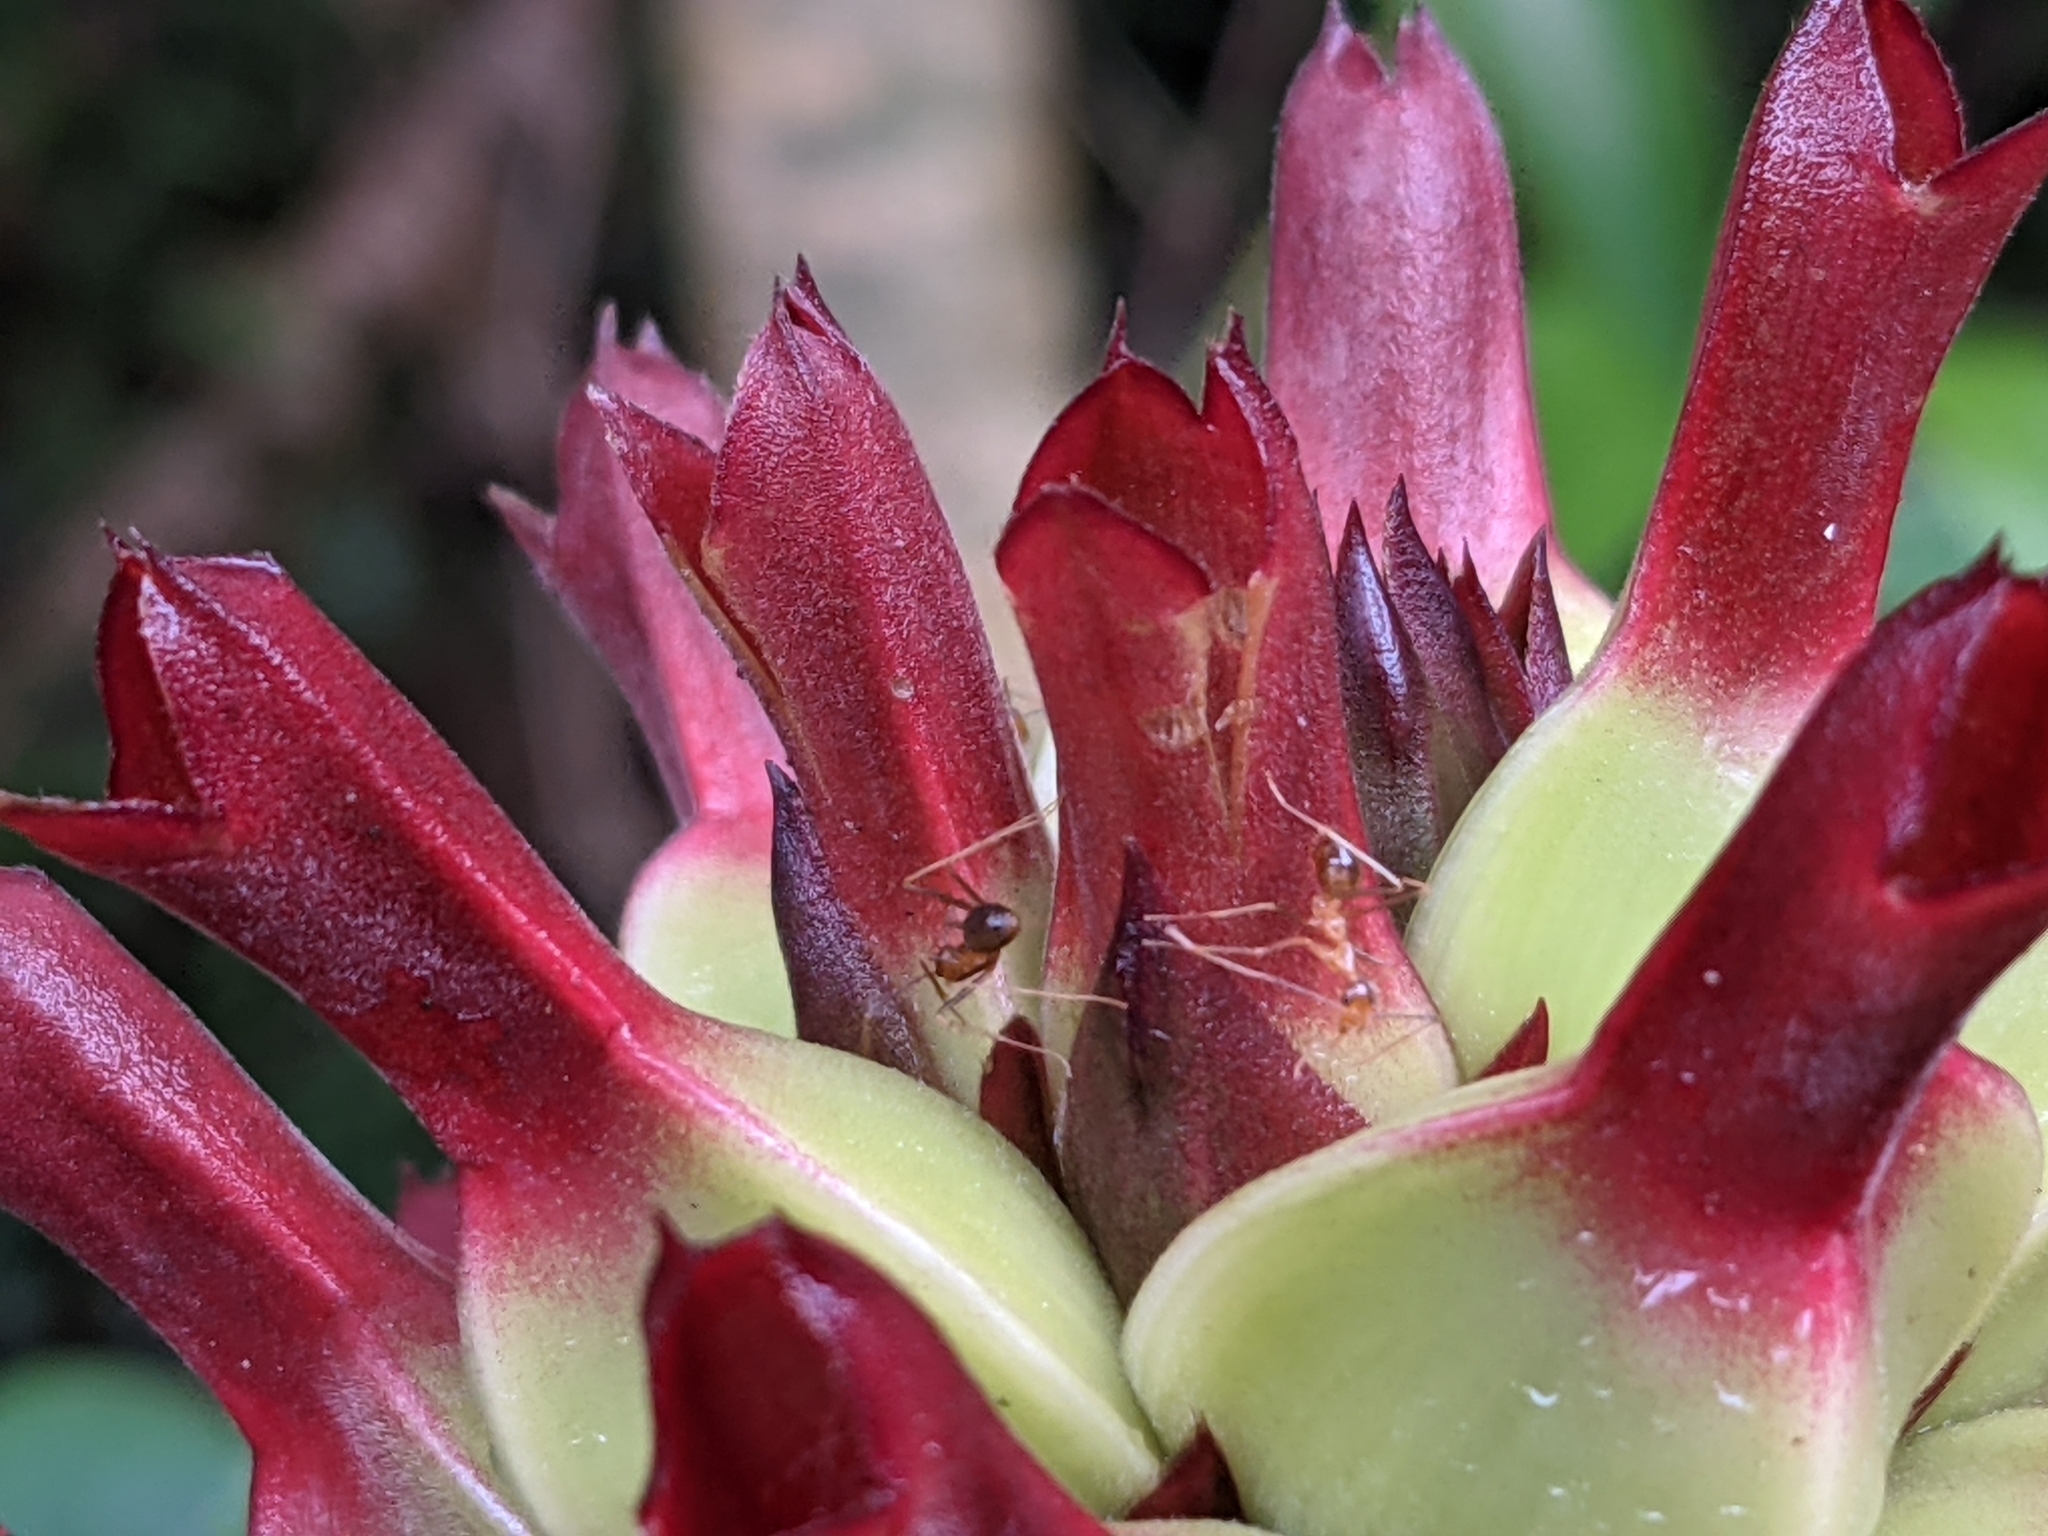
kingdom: Animalia
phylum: Arthropoda
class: Insecta
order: Hymenoptera
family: Formicidae
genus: Anoplolepis
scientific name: Anoplolepis gracilipes
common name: Ant
